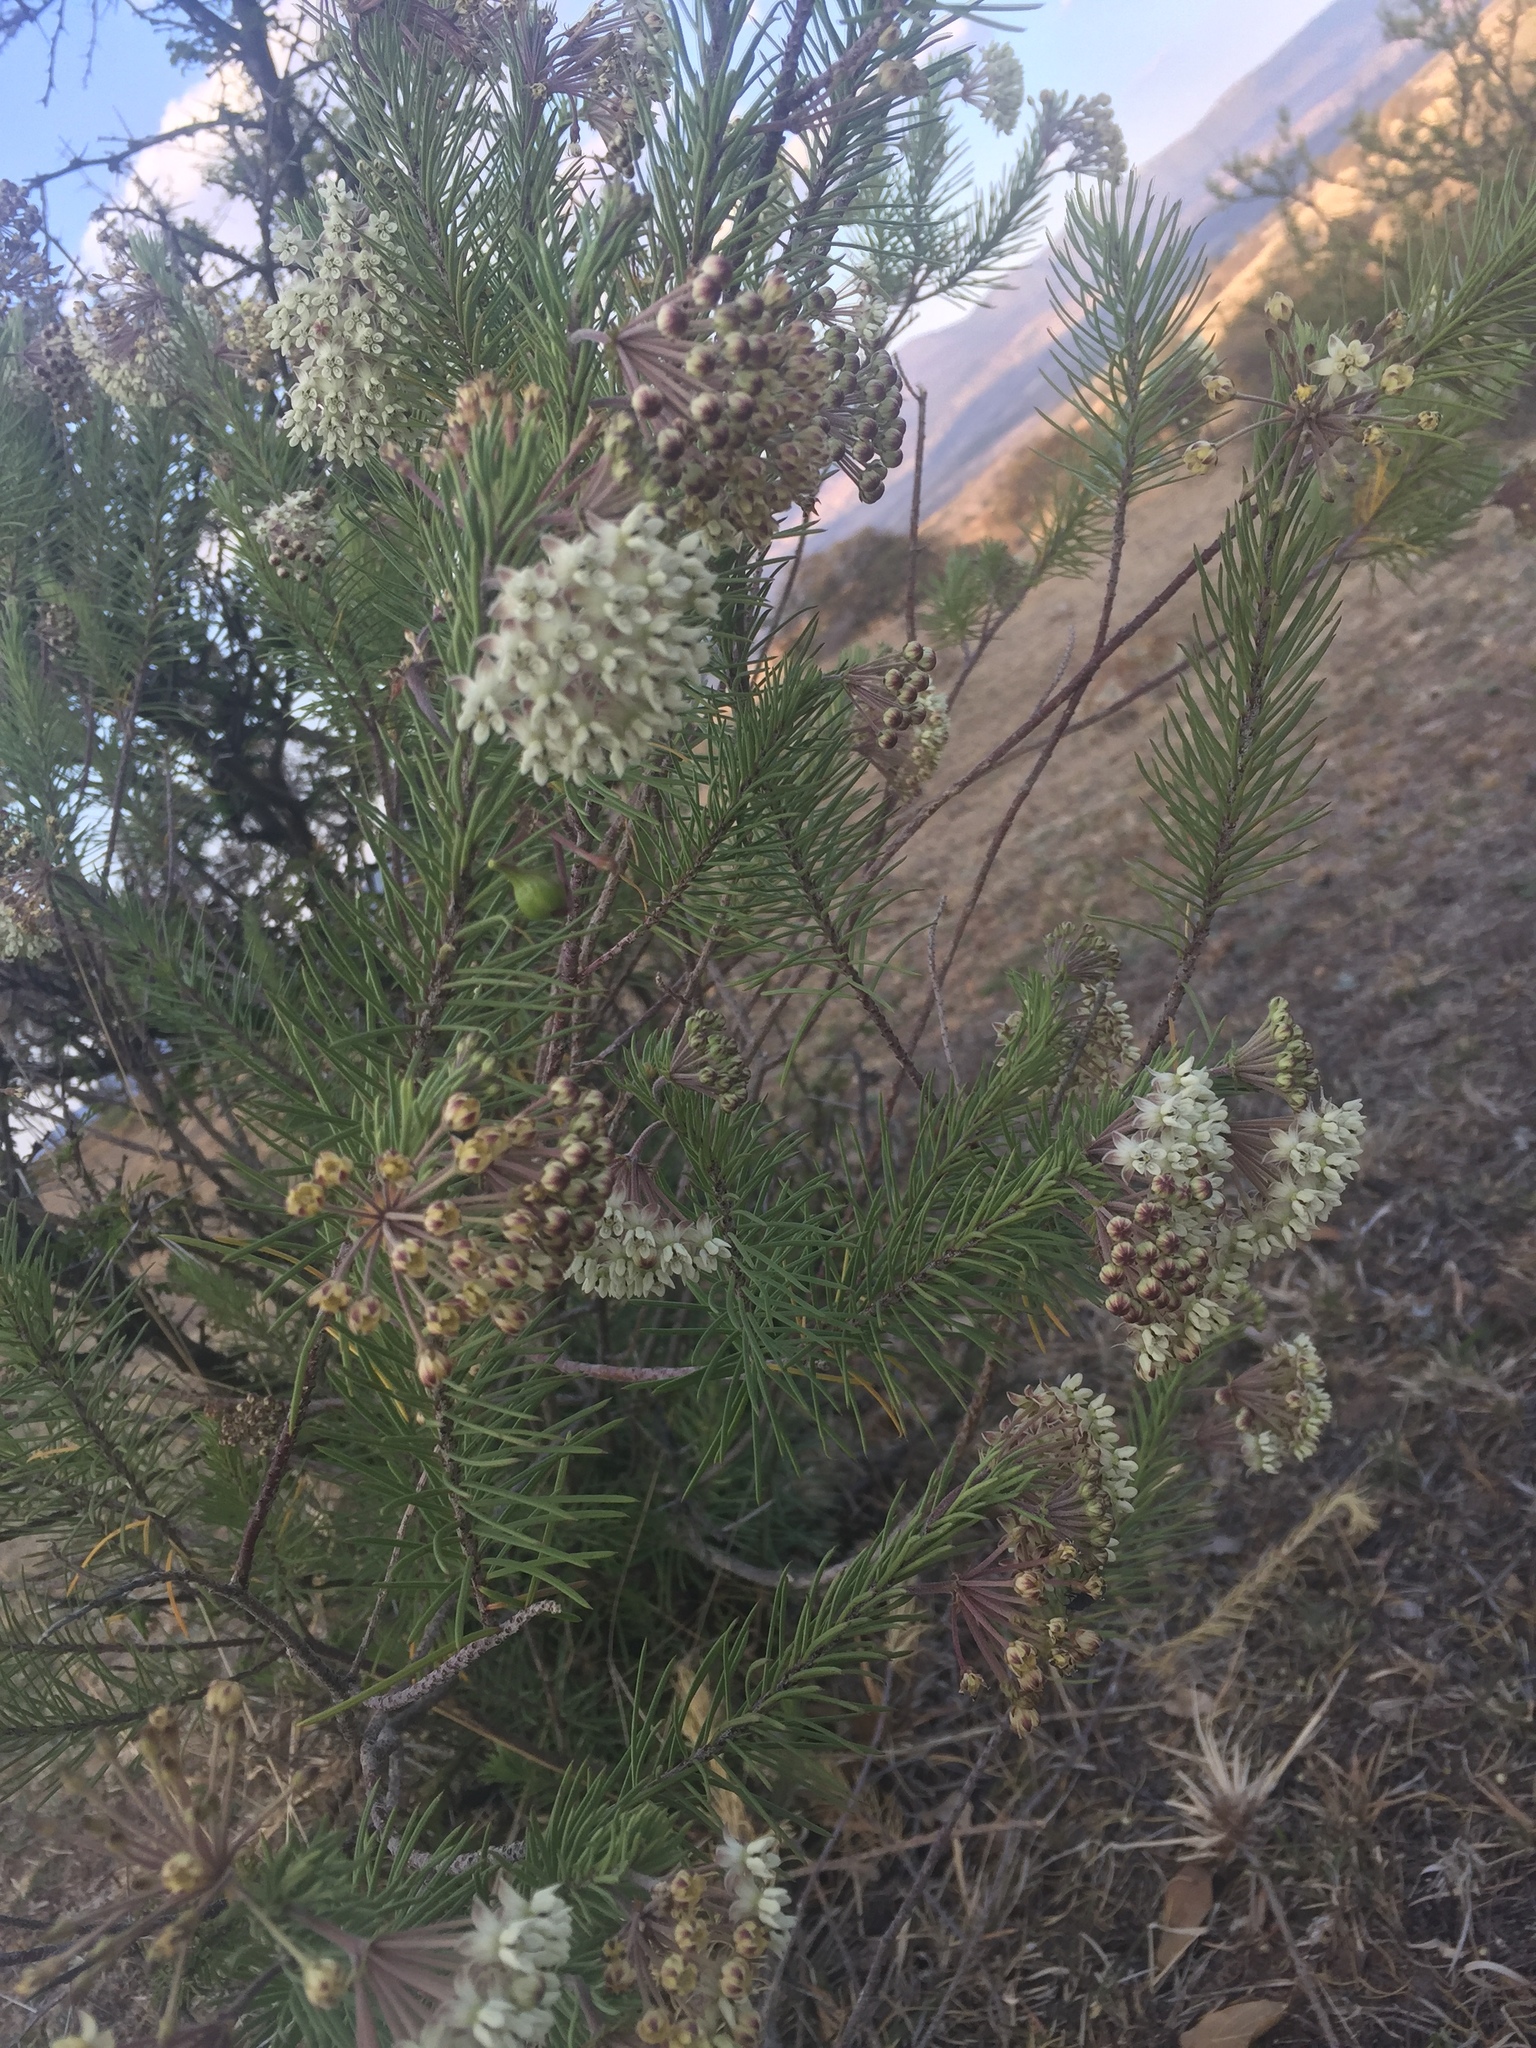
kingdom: Plantae
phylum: Tracheophyta
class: Magnoliopsida
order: Gentianales
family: Apocynaceae
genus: Asclepias
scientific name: Asclepias linaria
